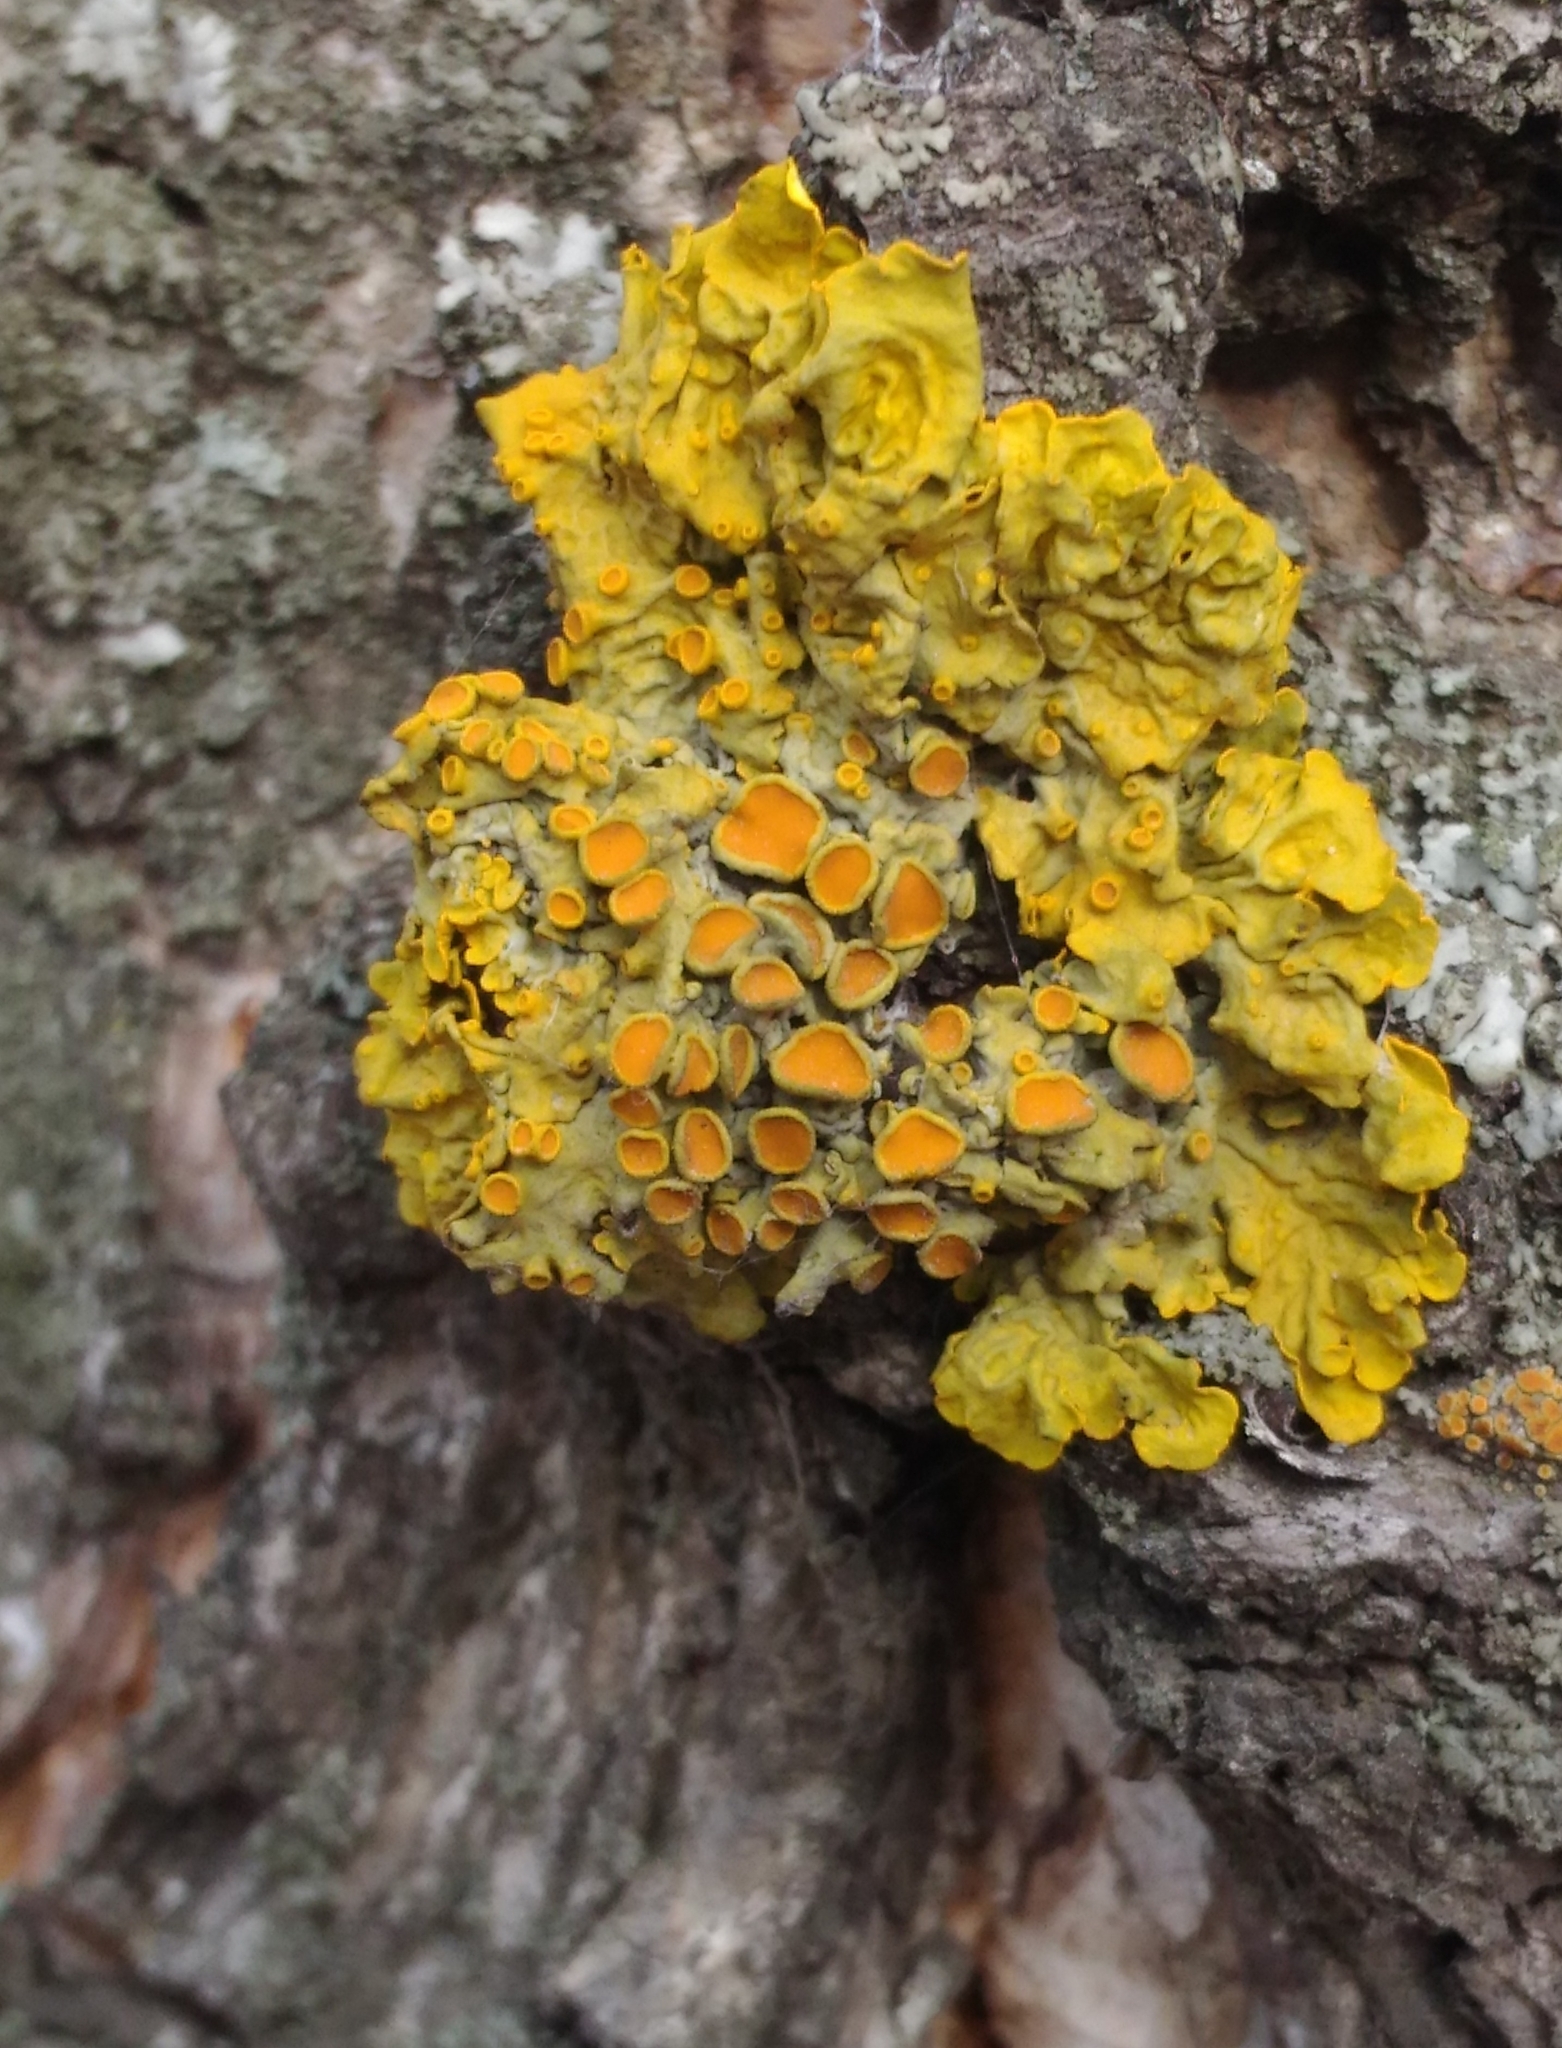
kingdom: Fungi
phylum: Ascomycota
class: Lecanoromycetes
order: Teloschistales
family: Teloschistaceae
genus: Xanthoria
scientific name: Xanthoria parietina
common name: Common orange lichen
